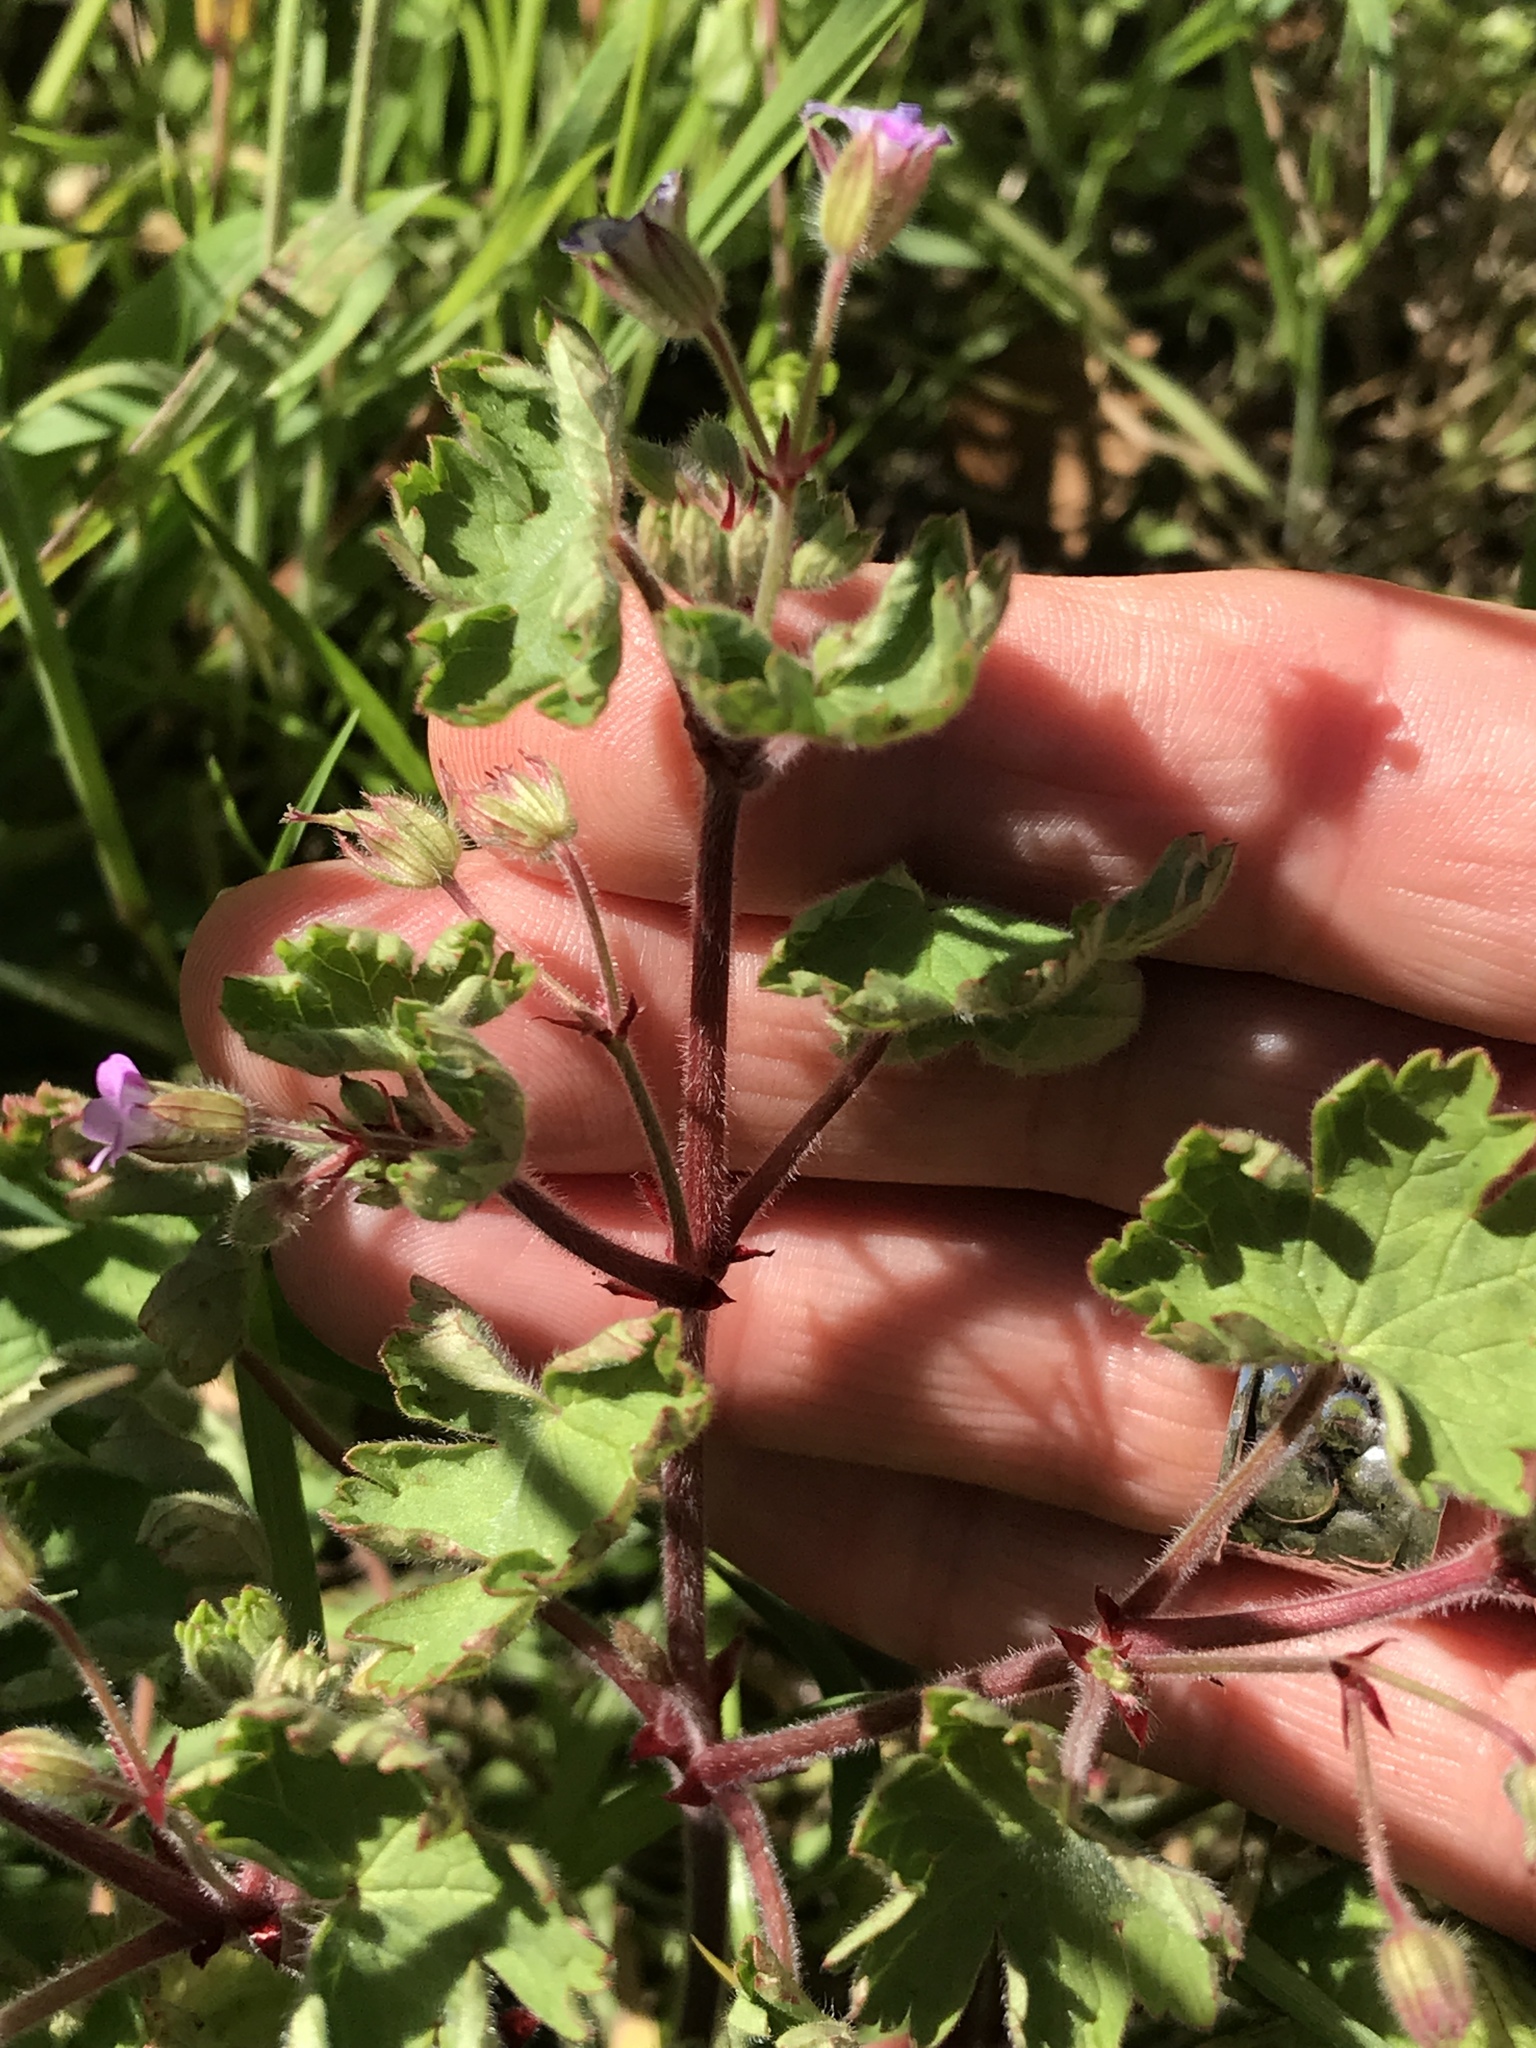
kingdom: Plantae
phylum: Tracheophyta
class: Magnoliopsida
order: Geraniales
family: Geraniaceae
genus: Geranium
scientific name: Geranium rotundifolium
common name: Round-leaved crane's-bill
